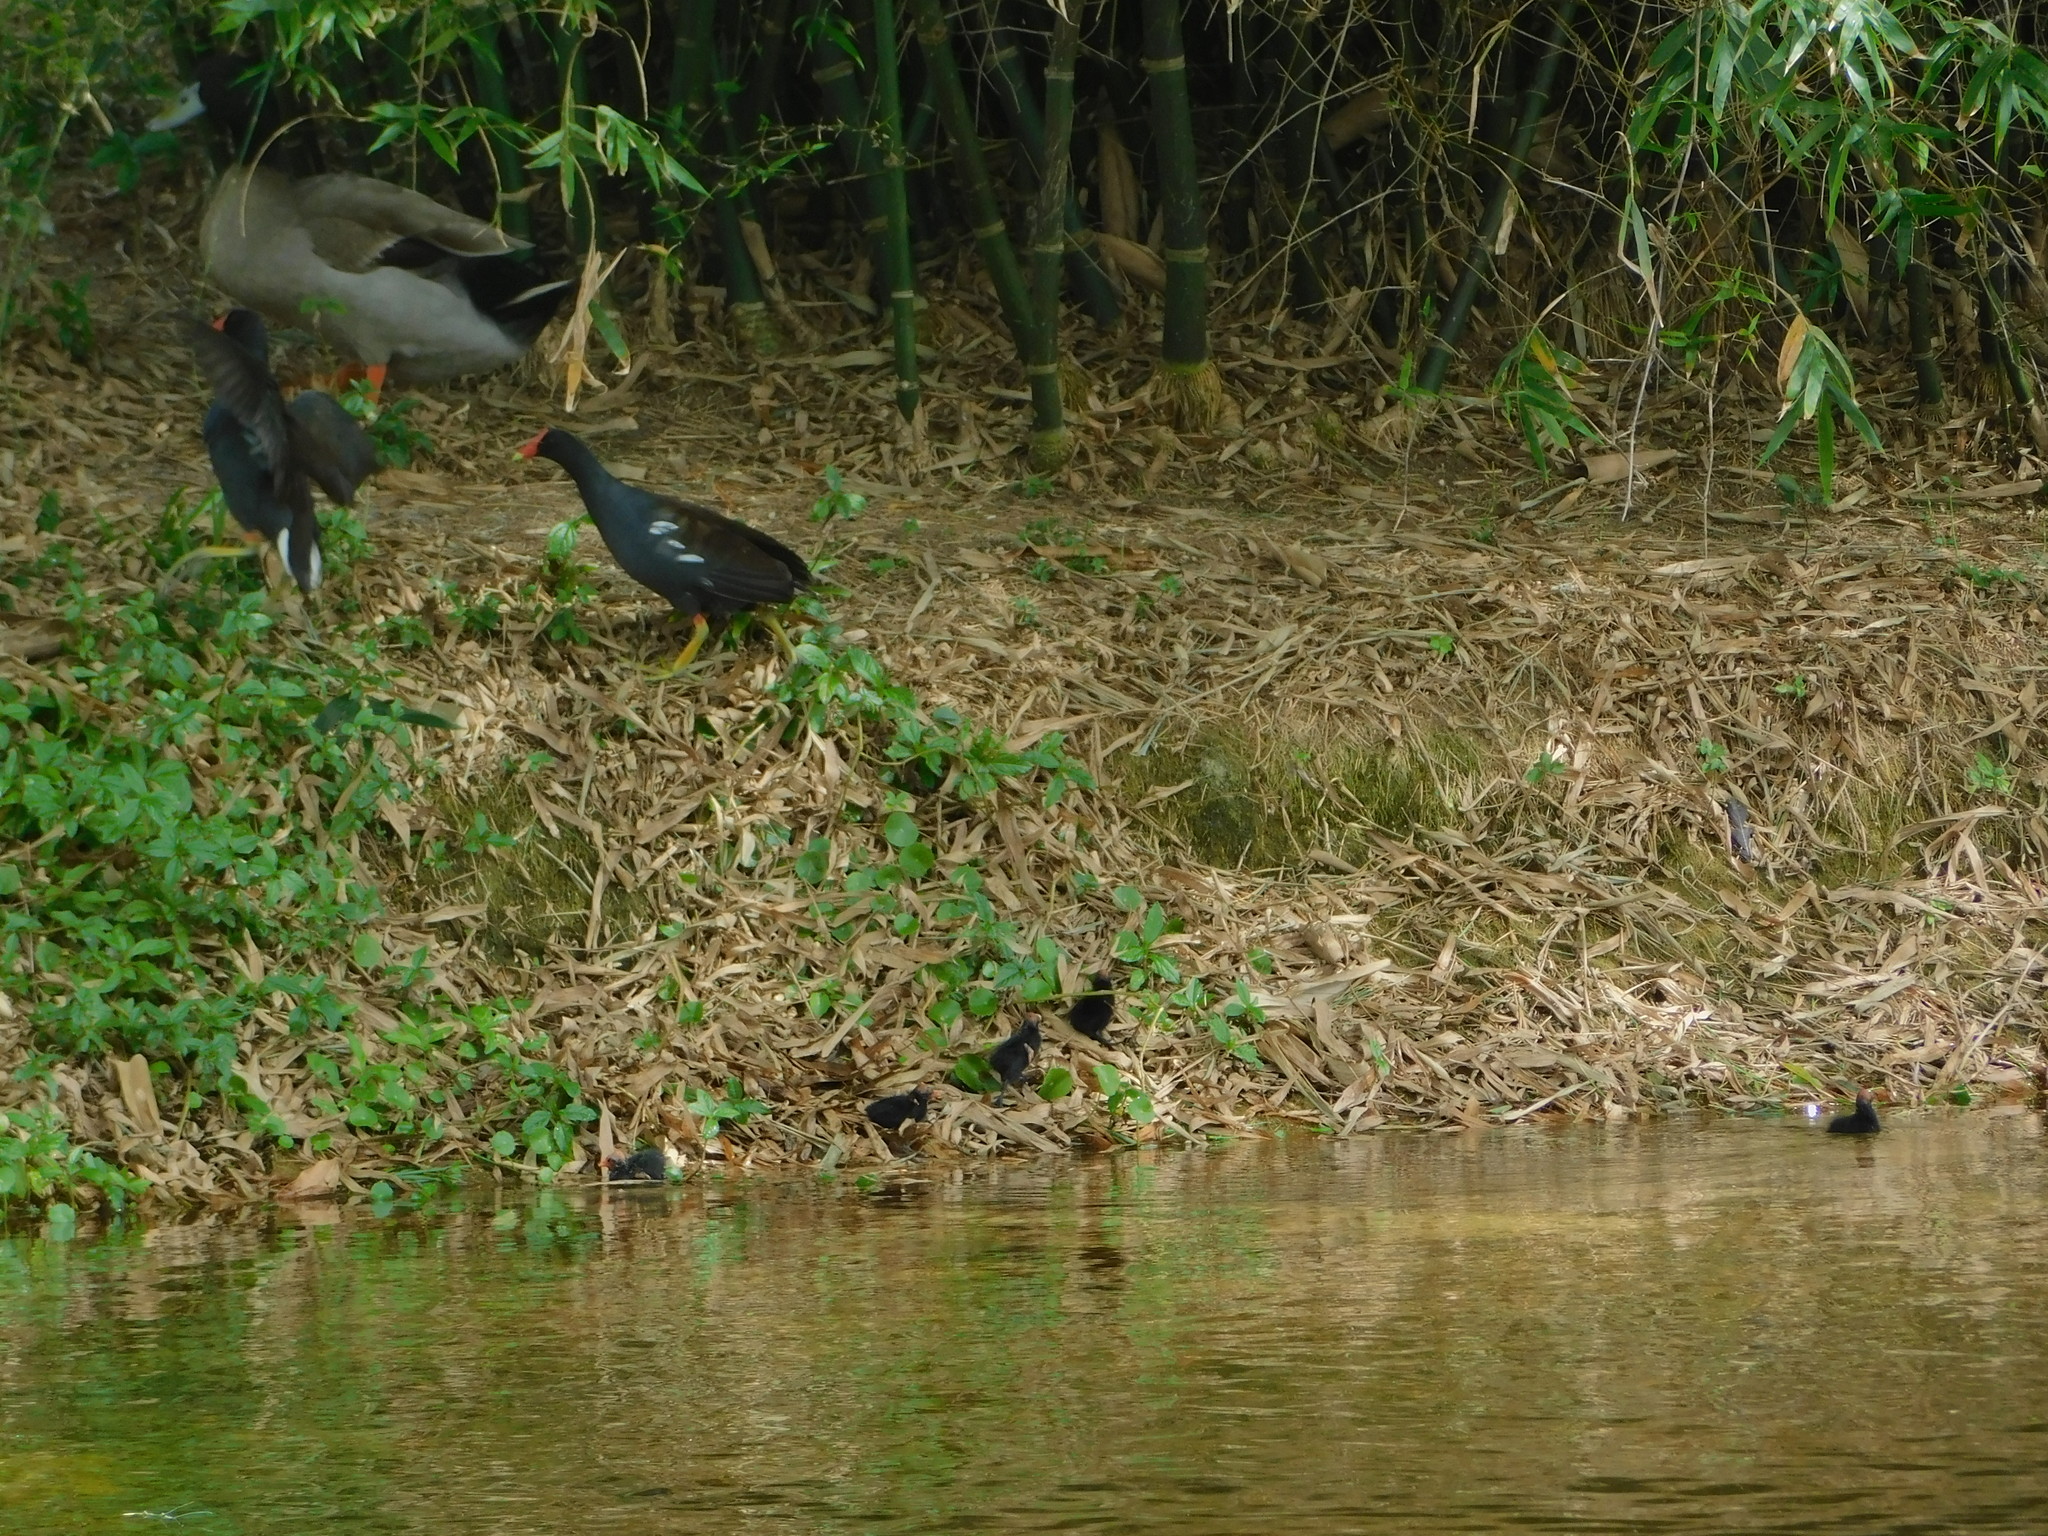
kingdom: Animalia
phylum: Chordata
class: Aves
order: Gruiformes
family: Rallidae
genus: Gallinula
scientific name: Gallinula chloropus
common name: Common moorhen
